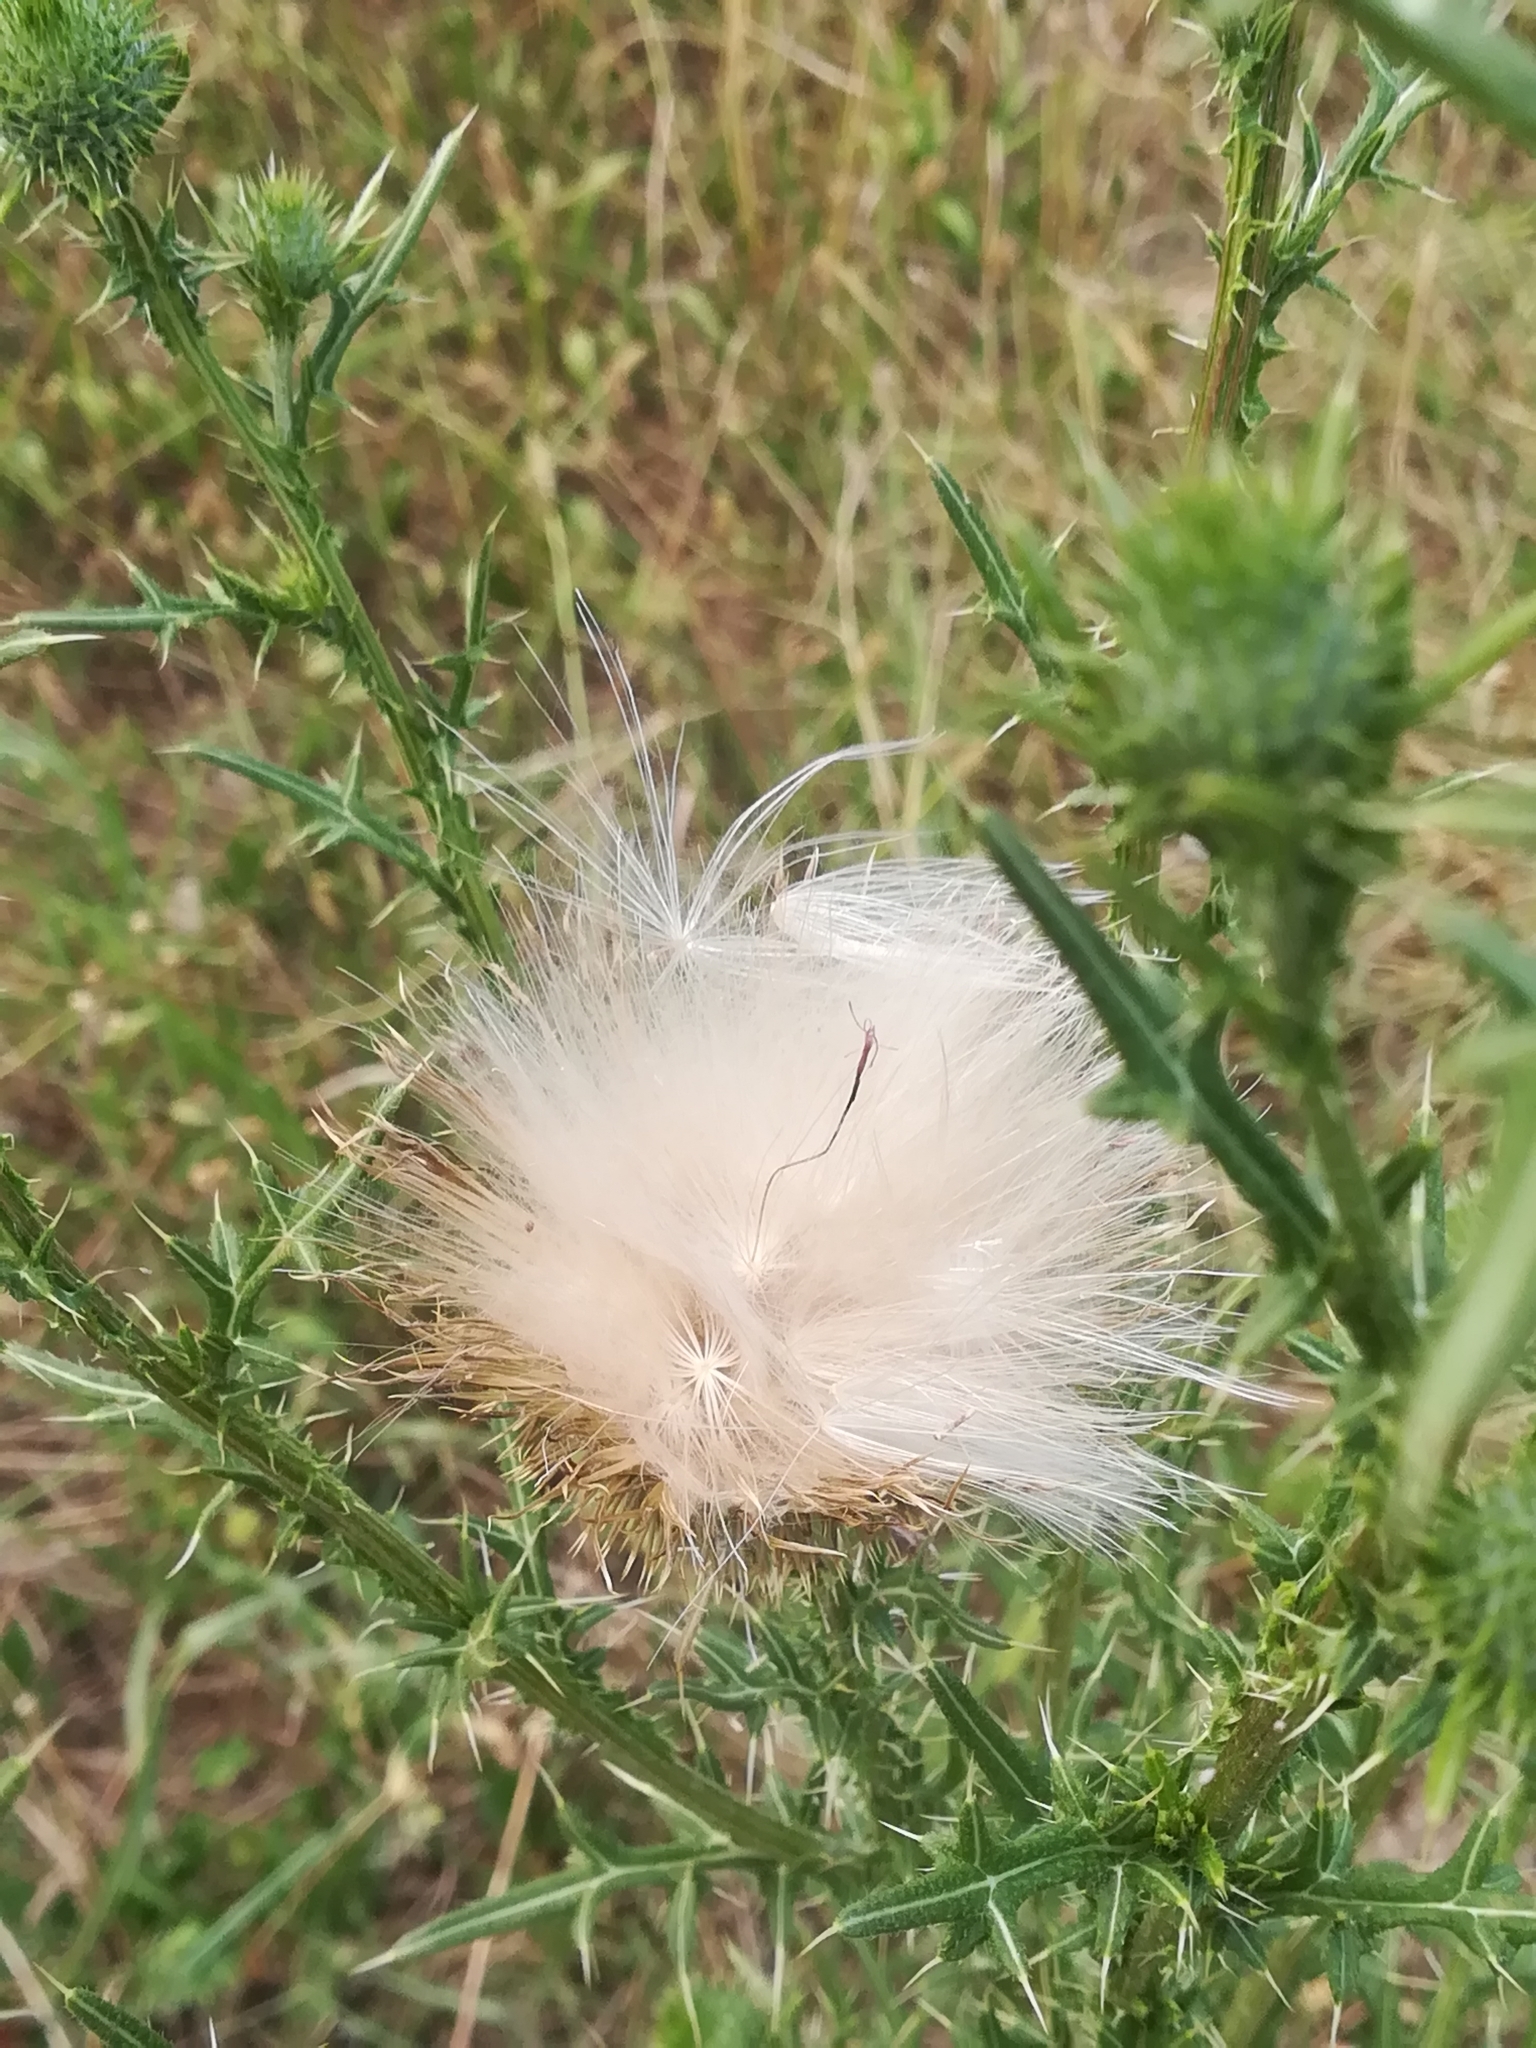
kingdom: Plantae
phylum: Tracheophyta
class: Magnoliopsida
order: Asterales
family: Asteraceae
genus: Cirsium
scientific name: Cirsium vulgare
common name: Bull thistle
